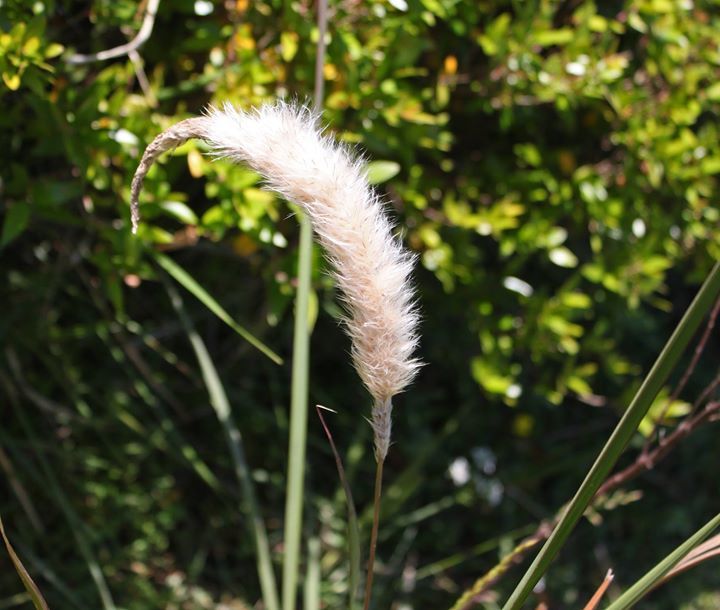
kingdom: Plantae
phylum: Tracheophyta
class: Liliopsida
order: Poales
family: Poaceae
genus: Polypogon
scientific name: Polypogon monspeliensis
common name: Annual rabbitsfoot grass
